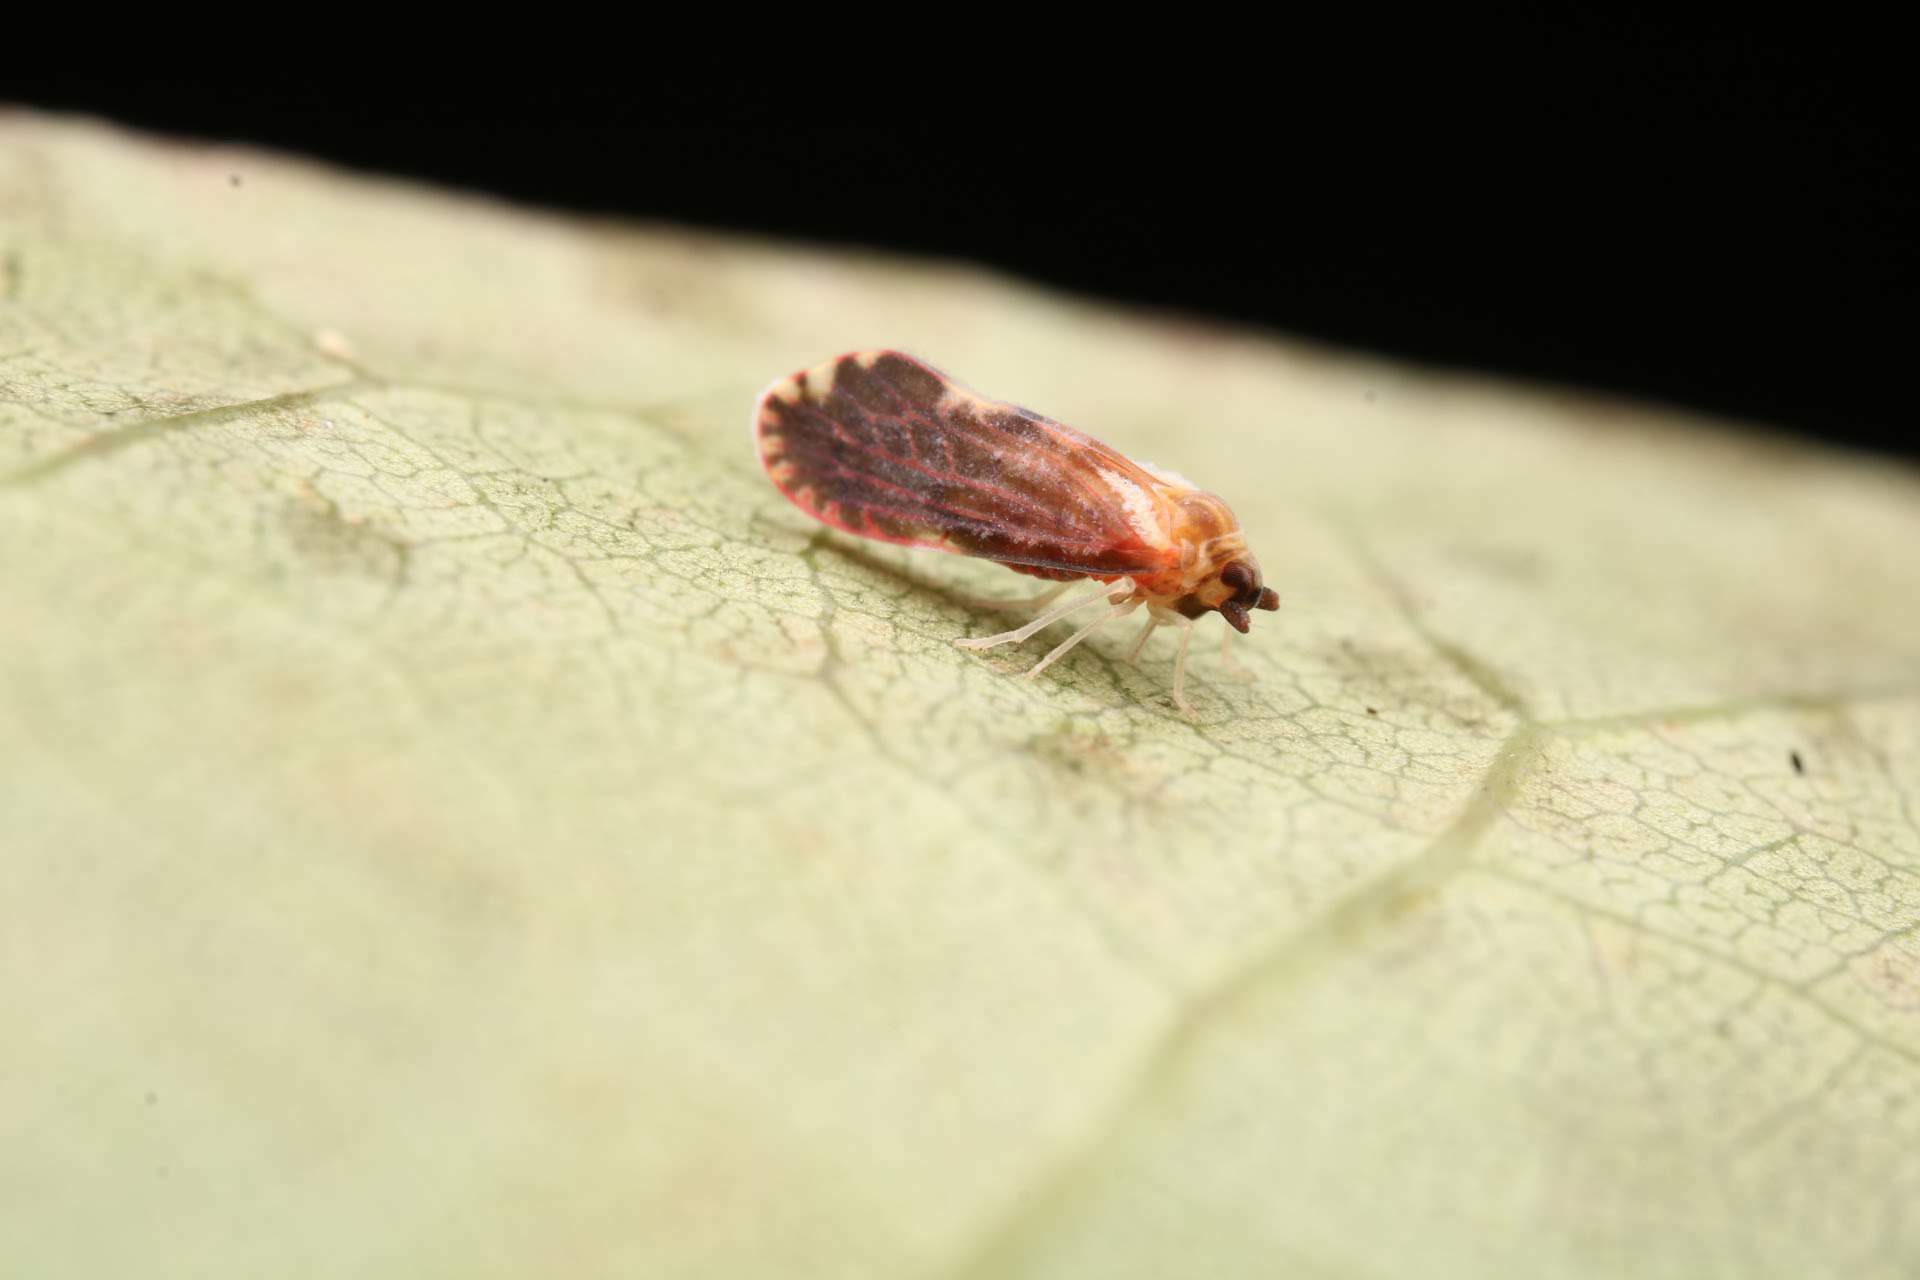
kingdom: Animalia
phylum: Arthropoda
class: Insecta
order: Hemiptera
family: Derbidae
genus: Patara
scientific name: Patara vanduzei
